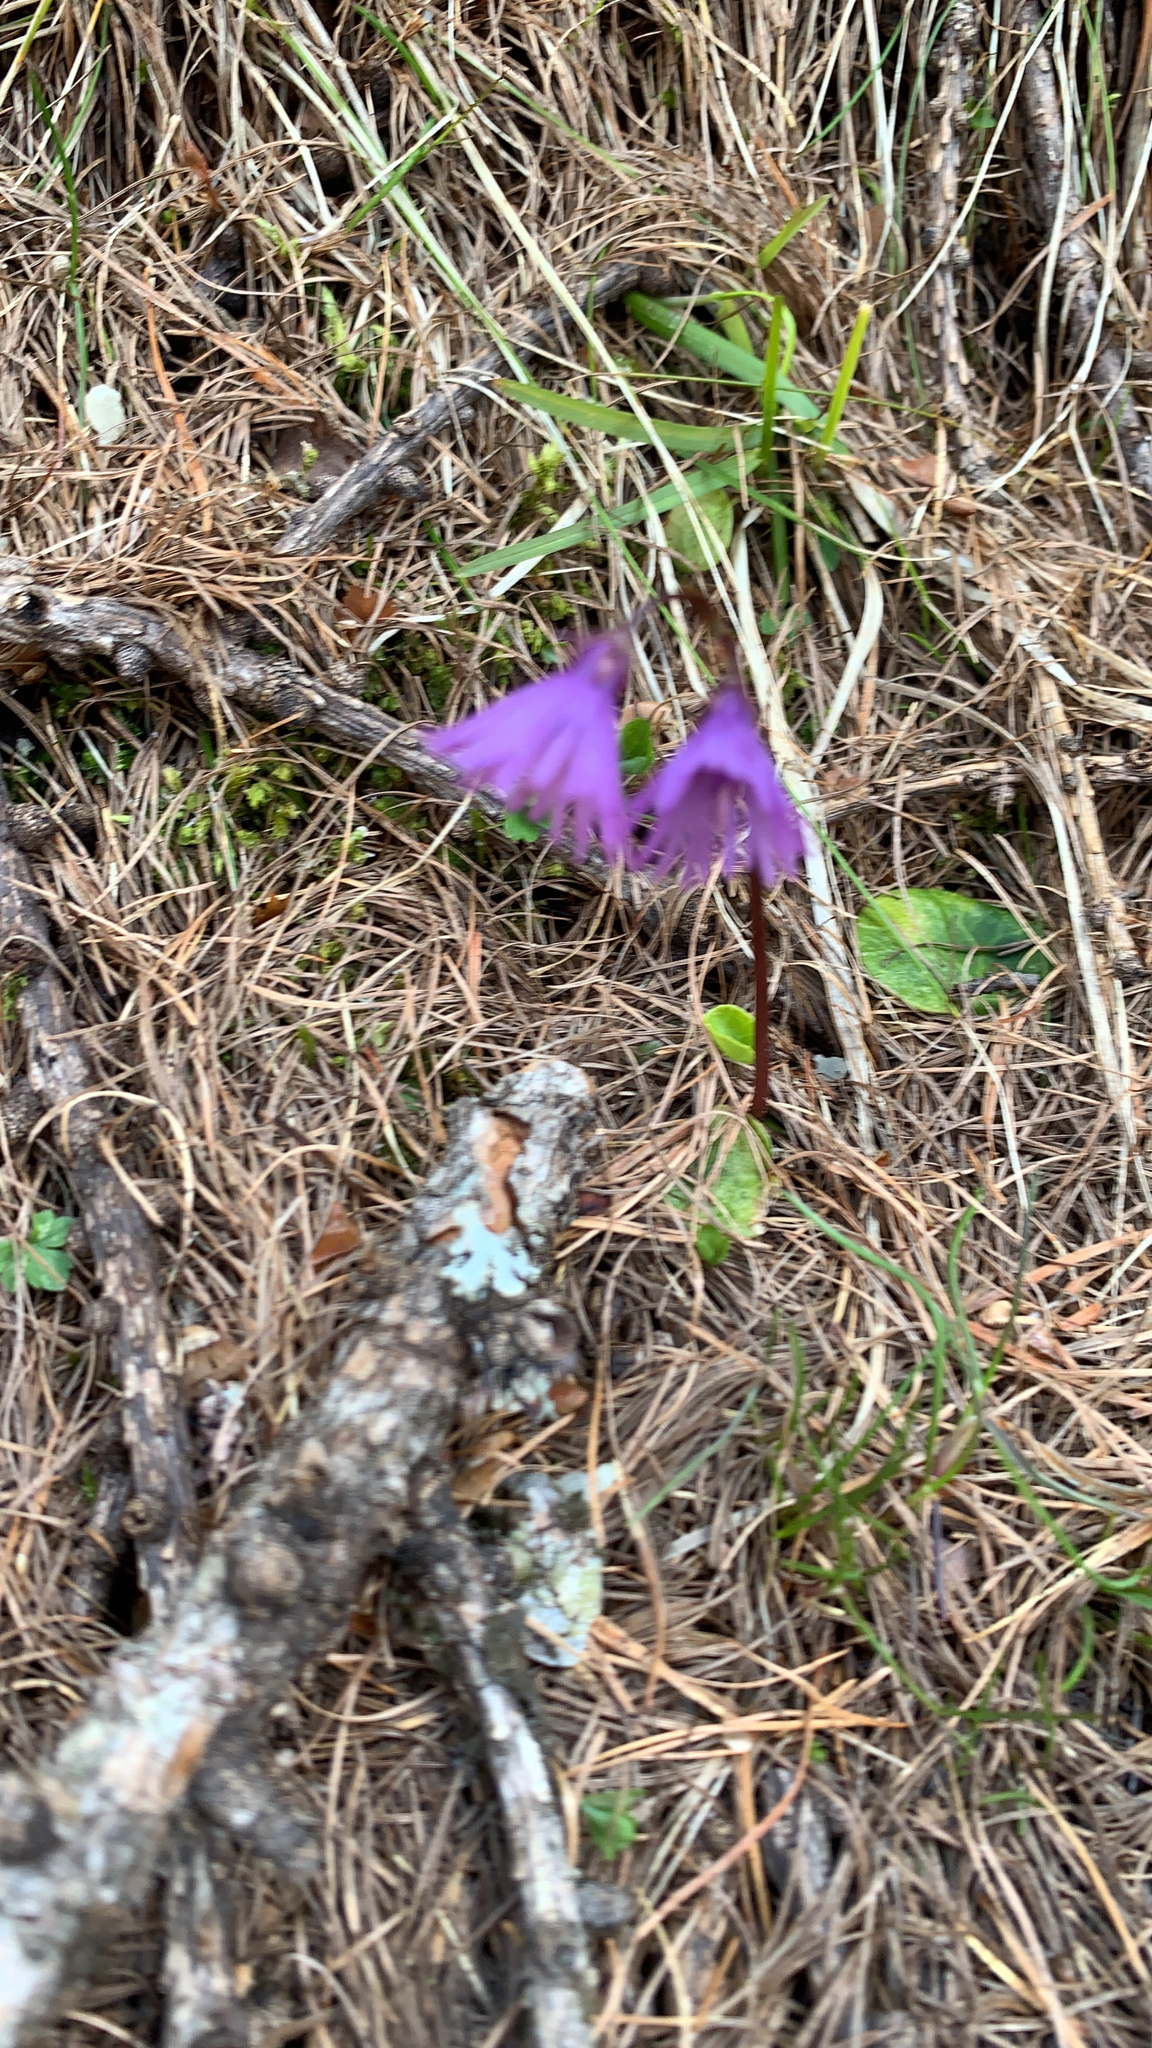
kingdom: Plantae
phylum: Tracheophyta
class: Magnoliopsida
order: Ericales
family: Primulaceae
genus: Soldanella
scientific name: Soldanella alpina
